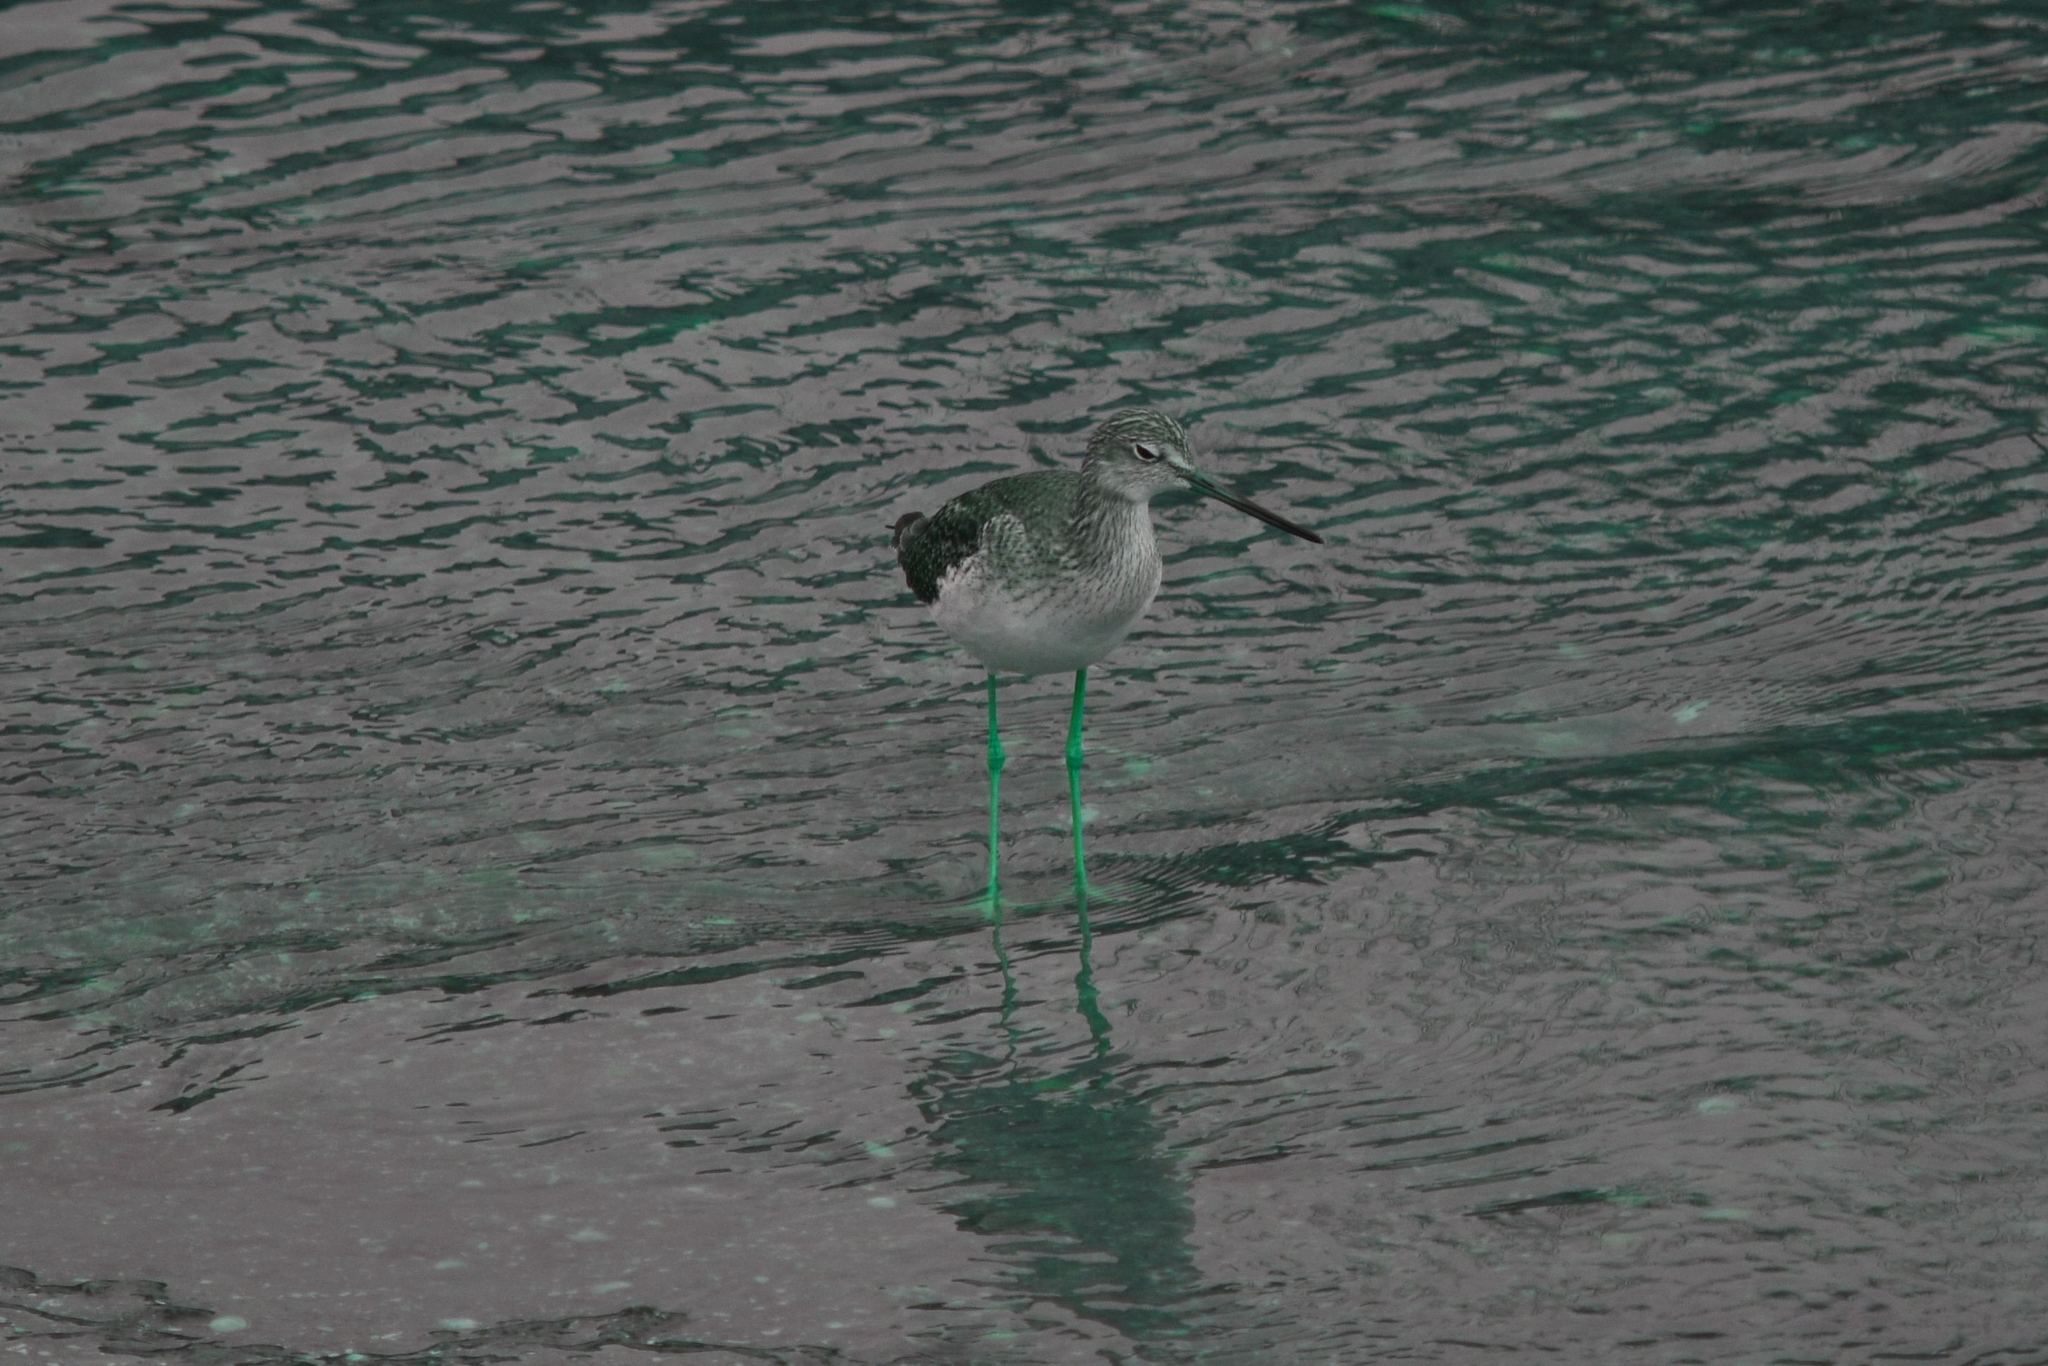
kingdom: Animalia
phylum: Chordata
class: Aves
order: Charadriiformes
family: Scolopacidae
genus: Tringa
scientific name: Tringa melanoleuca
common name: Greater yellowlegs
